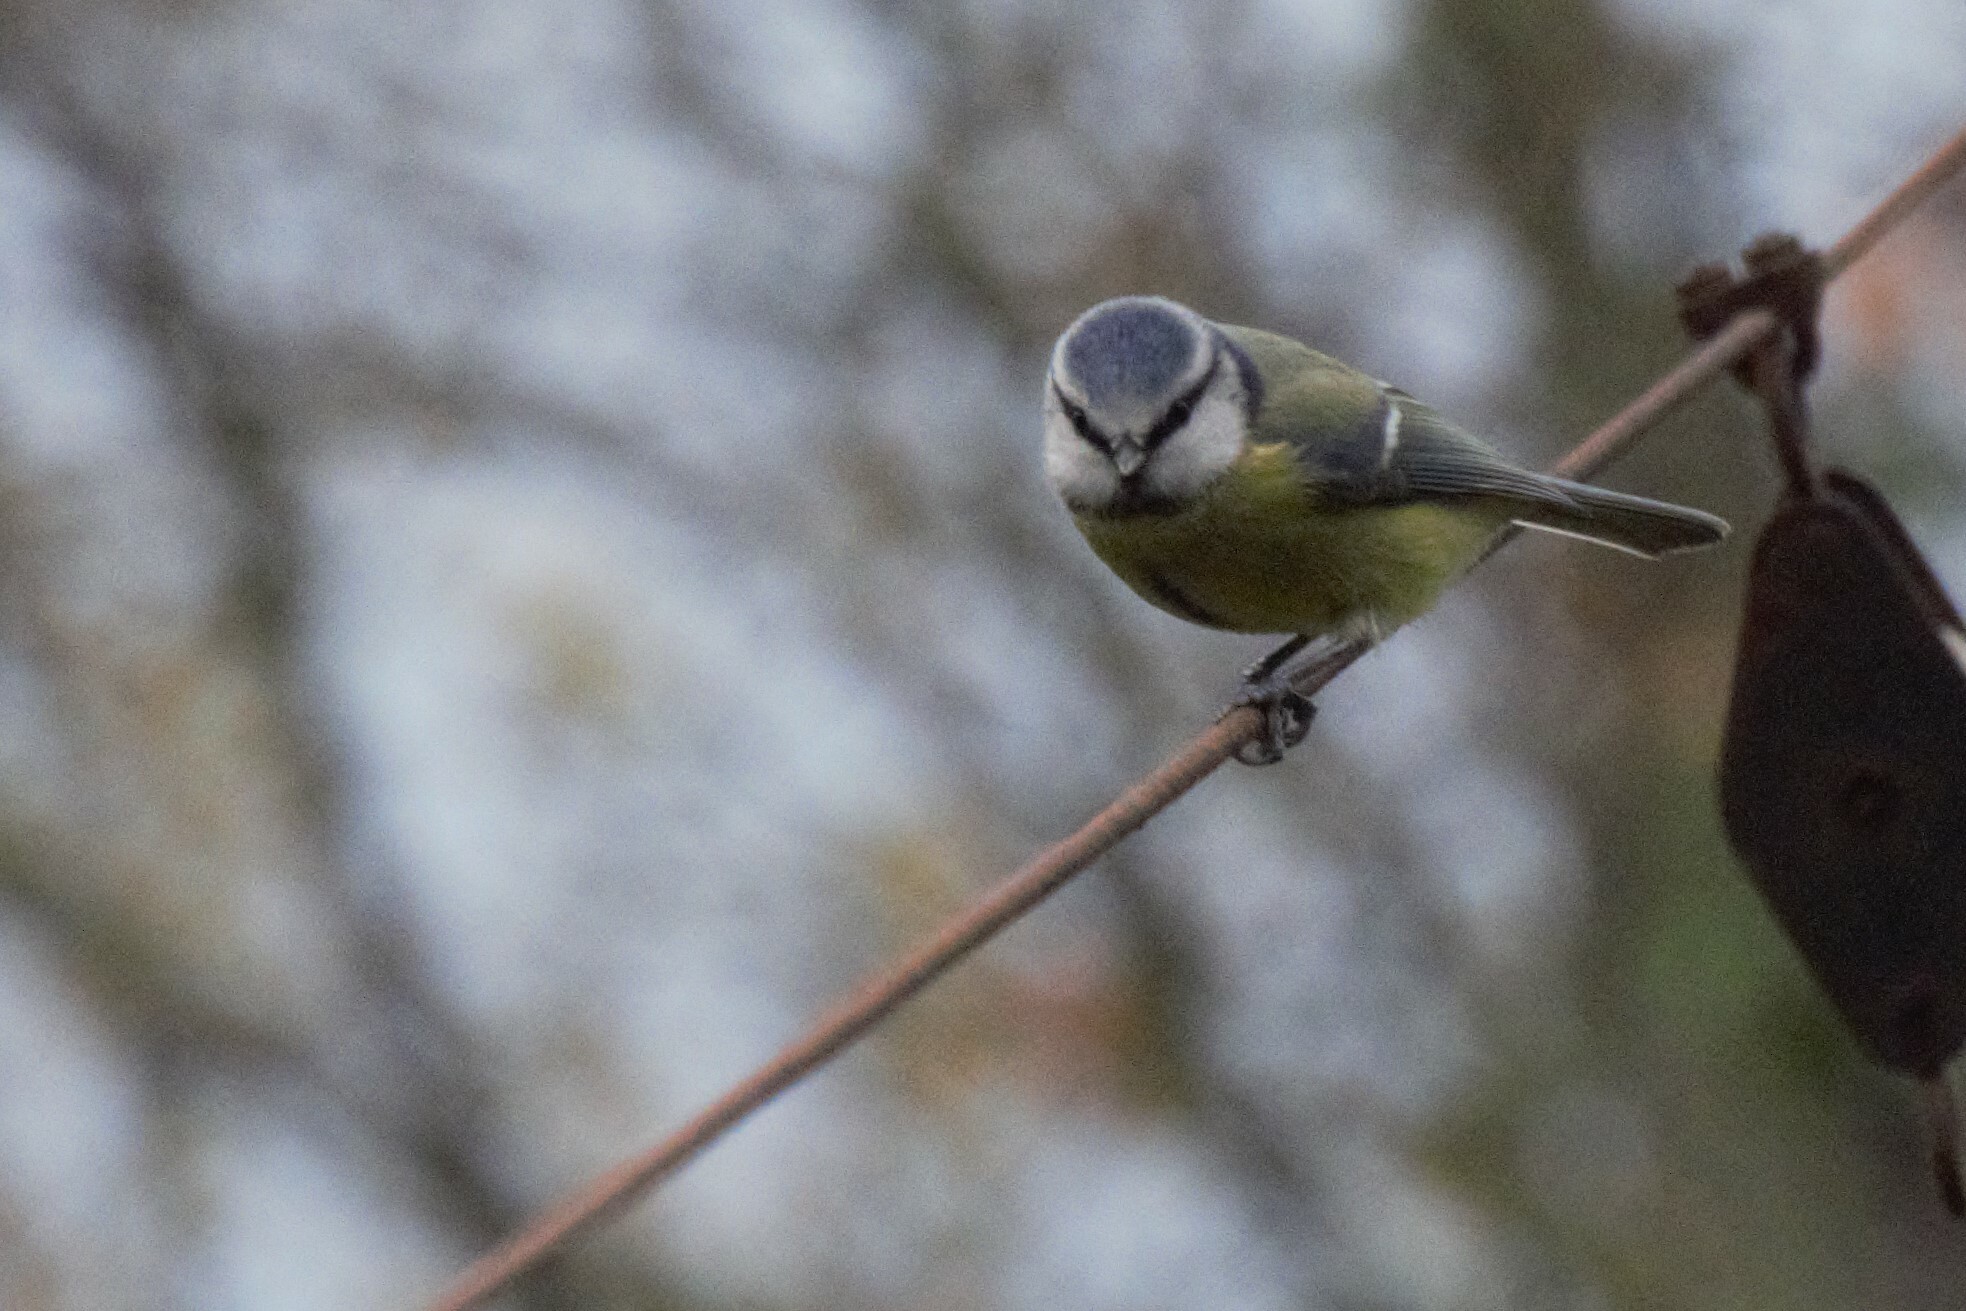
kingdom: Animalia
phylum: Chordata
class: Aves
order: Passeriformes
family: Paridae
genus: Cyanistes
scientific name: Cyanistes caeruleus
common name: Eurasian blue tit
